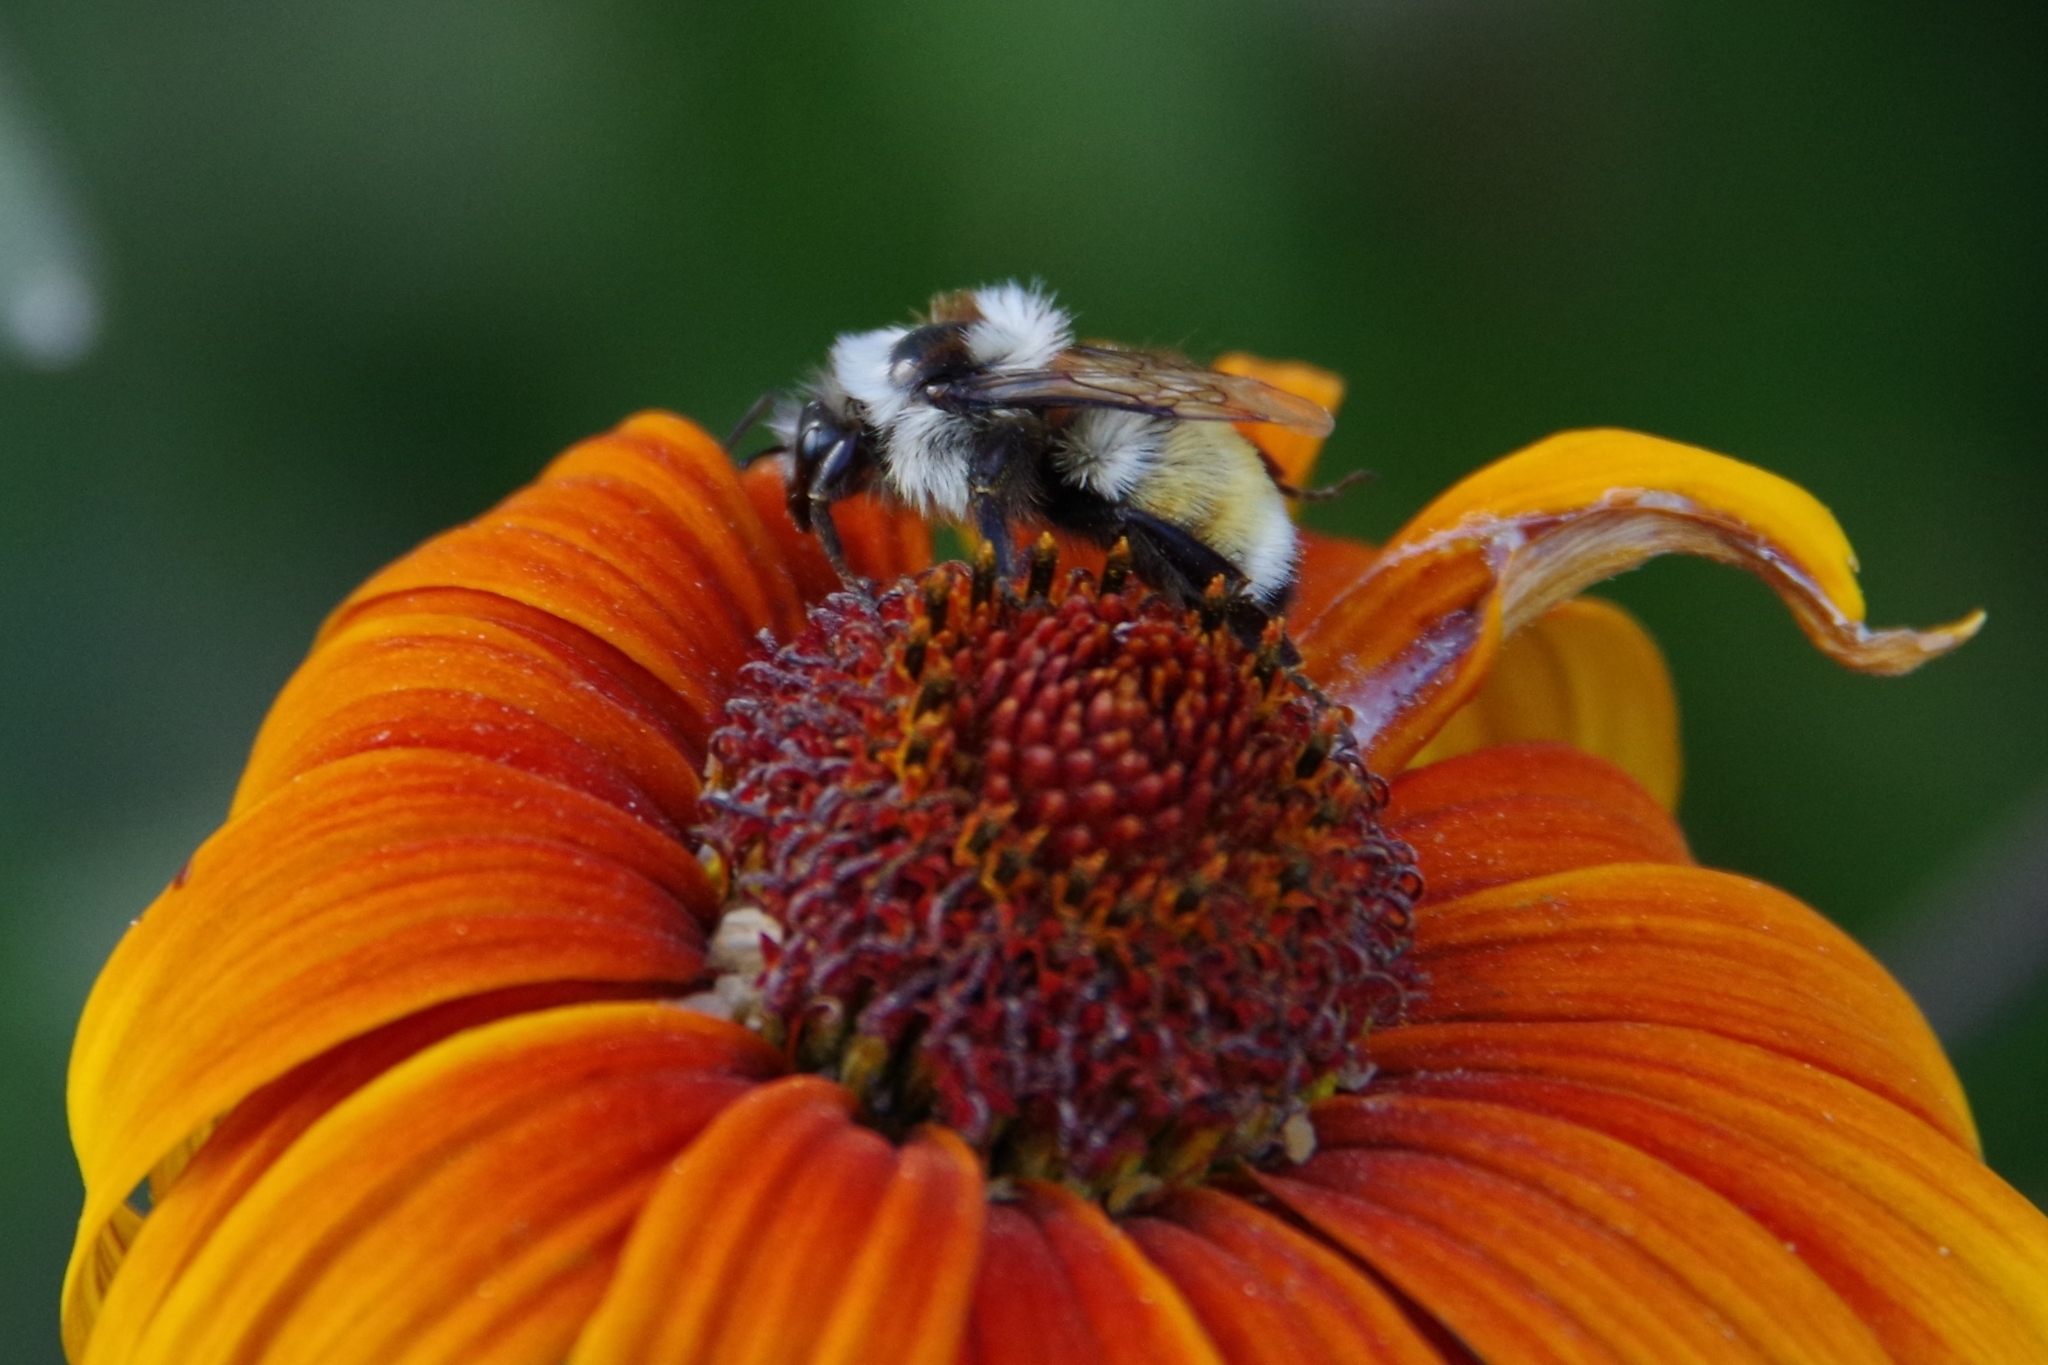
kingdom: Animalia
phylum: Arthropoda
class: Insecta
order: Hymenoptera
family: Apidae
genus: Bombus
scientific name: Bombus huntii
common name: Hunt bumble bee
